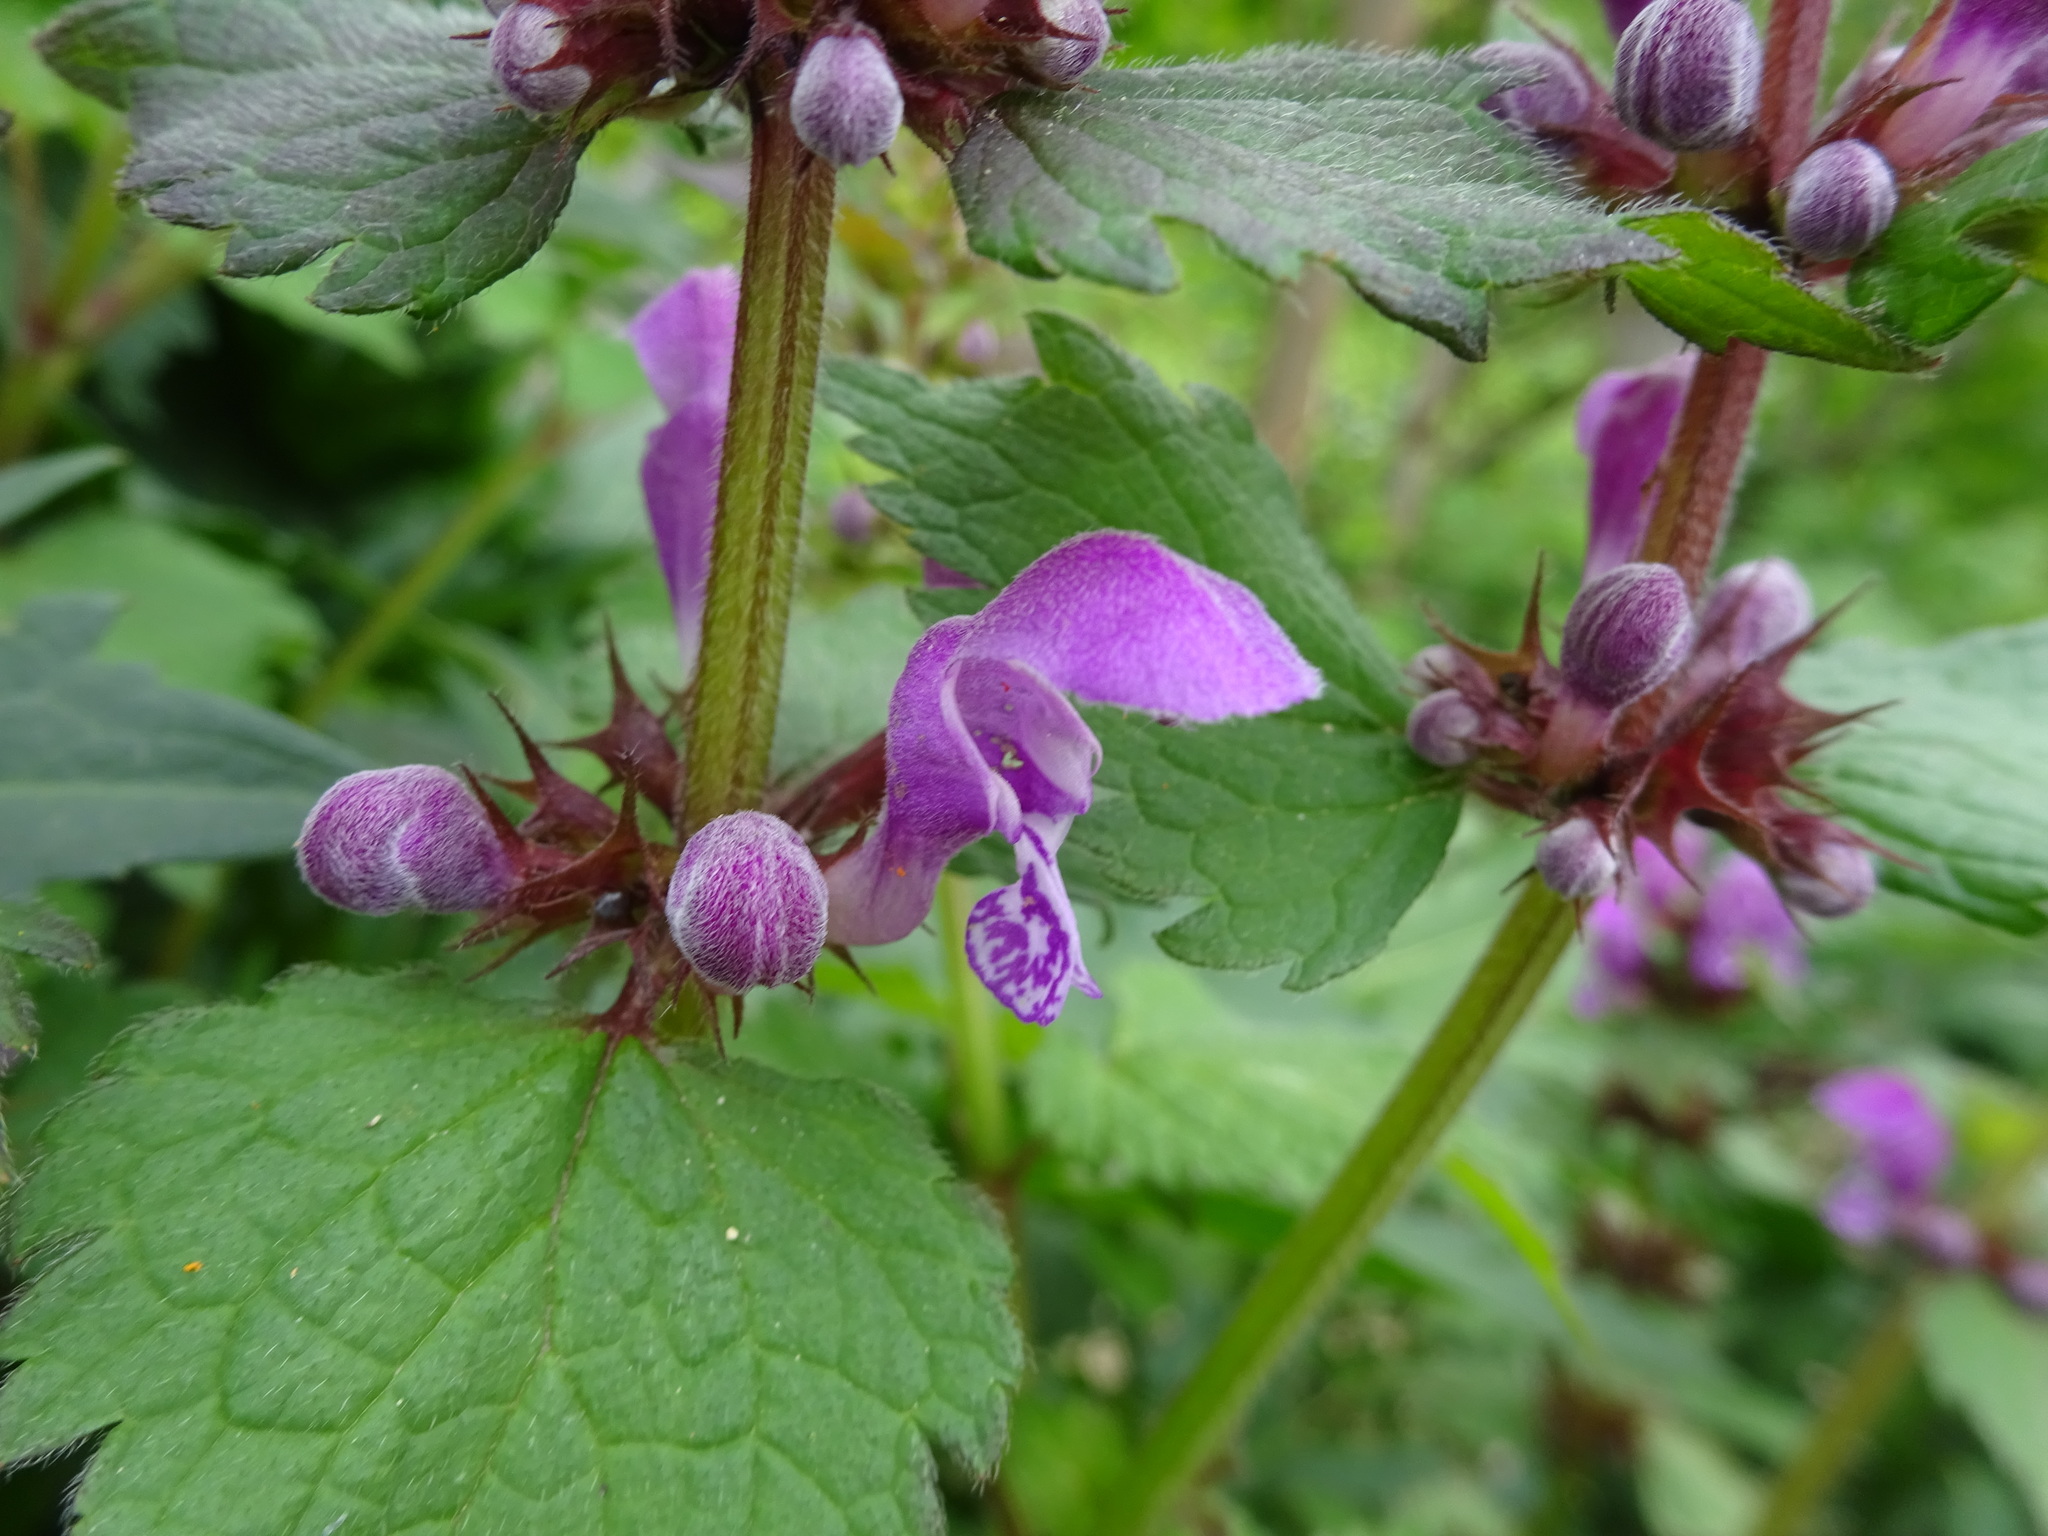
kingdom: Plantae
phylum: Tracheophyta
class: Magnoliopsida
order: Lamiales
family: Lamiaceae
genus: Lamium
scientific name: Lamium maculatum
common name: Spotted dead-nettle
